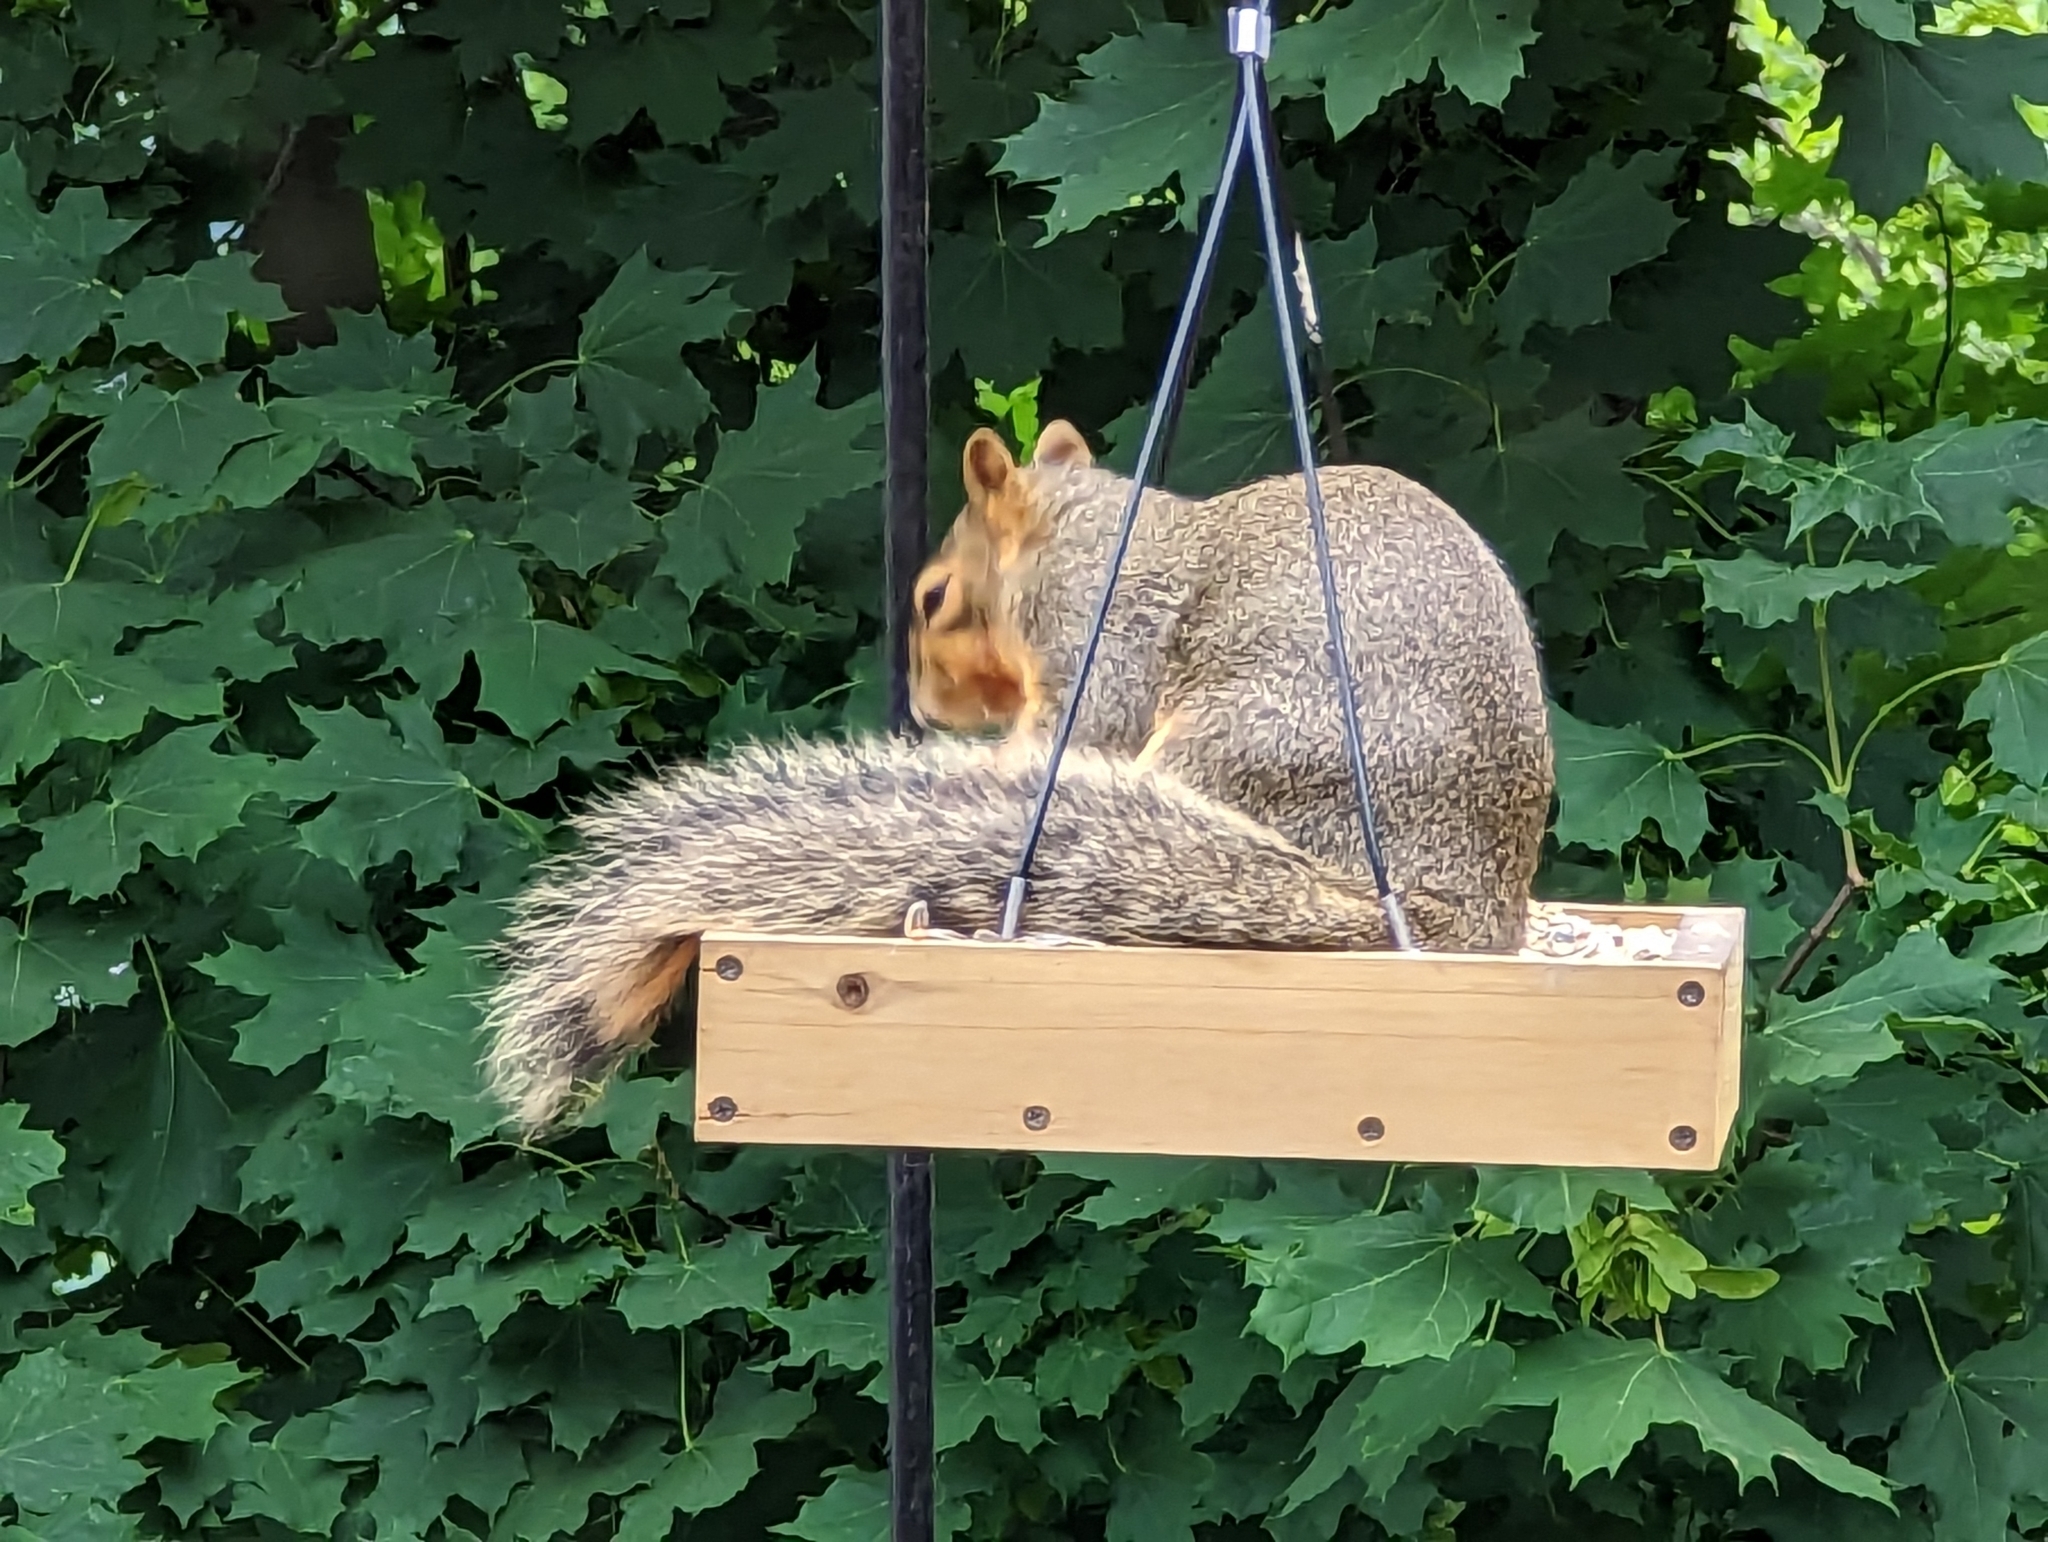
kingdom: Animalia
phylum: Chordata
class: Mammalia
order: Rodentia
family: Sciuridae
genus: Sciurus
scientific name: Sciurus niger
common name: Fox squirrel
